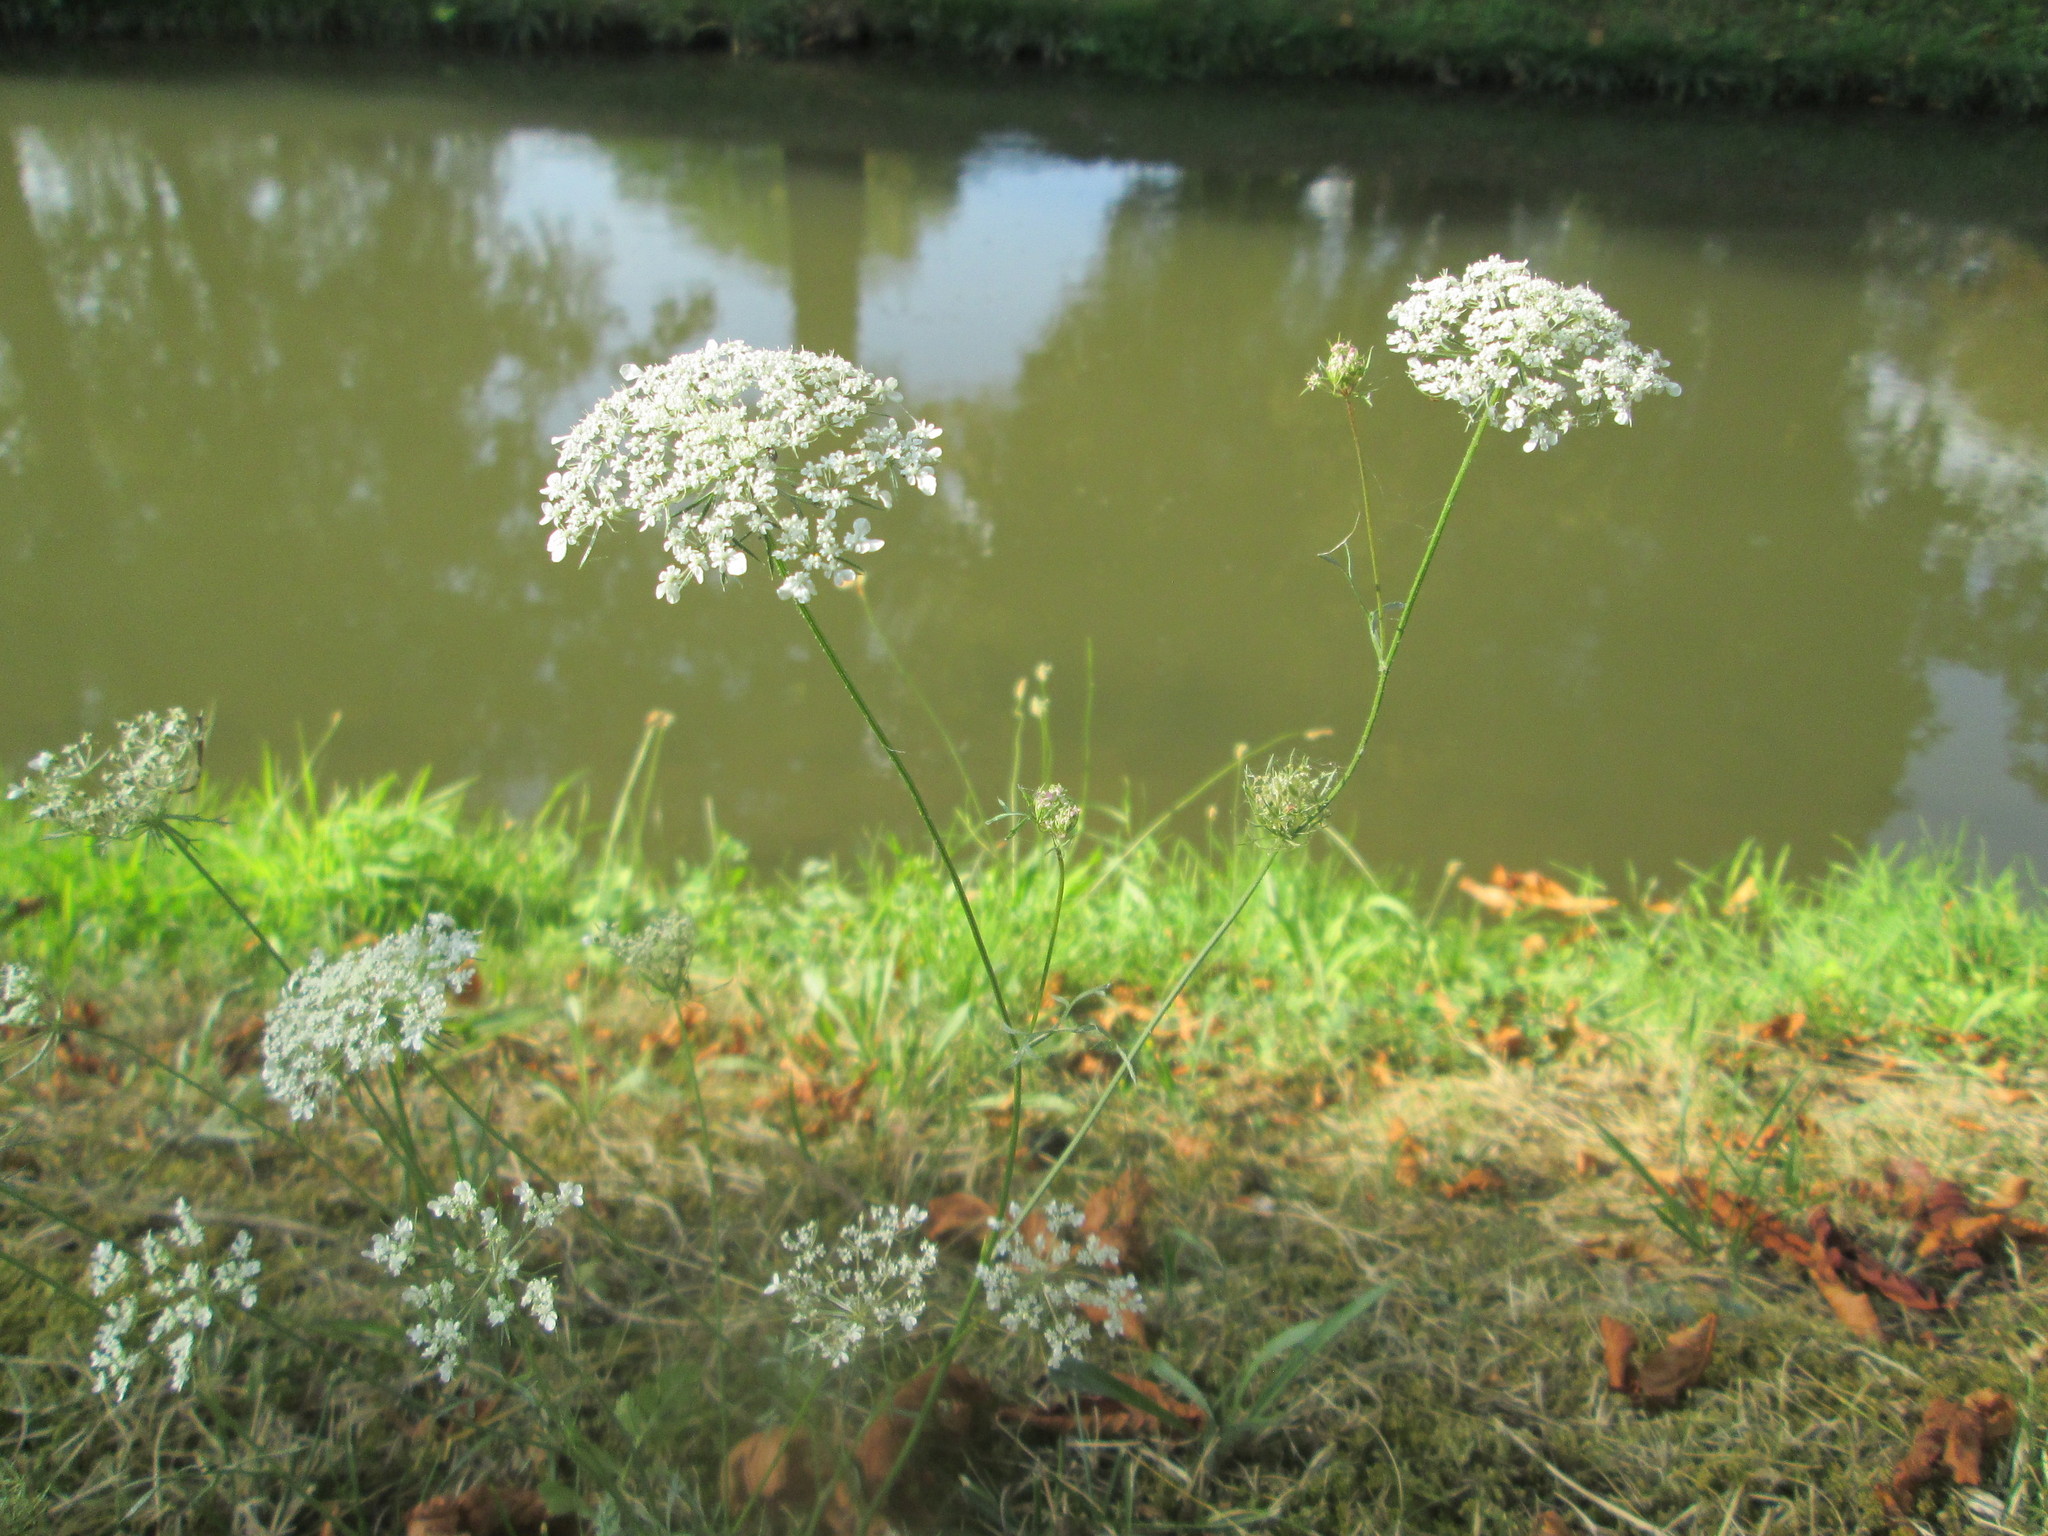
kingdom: Plantae
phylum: Tracheophyta
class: Magnoliopsida
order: Apiales
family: Apiaceae
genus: Daucus
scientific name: Daucus carota
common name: Wild carrot
